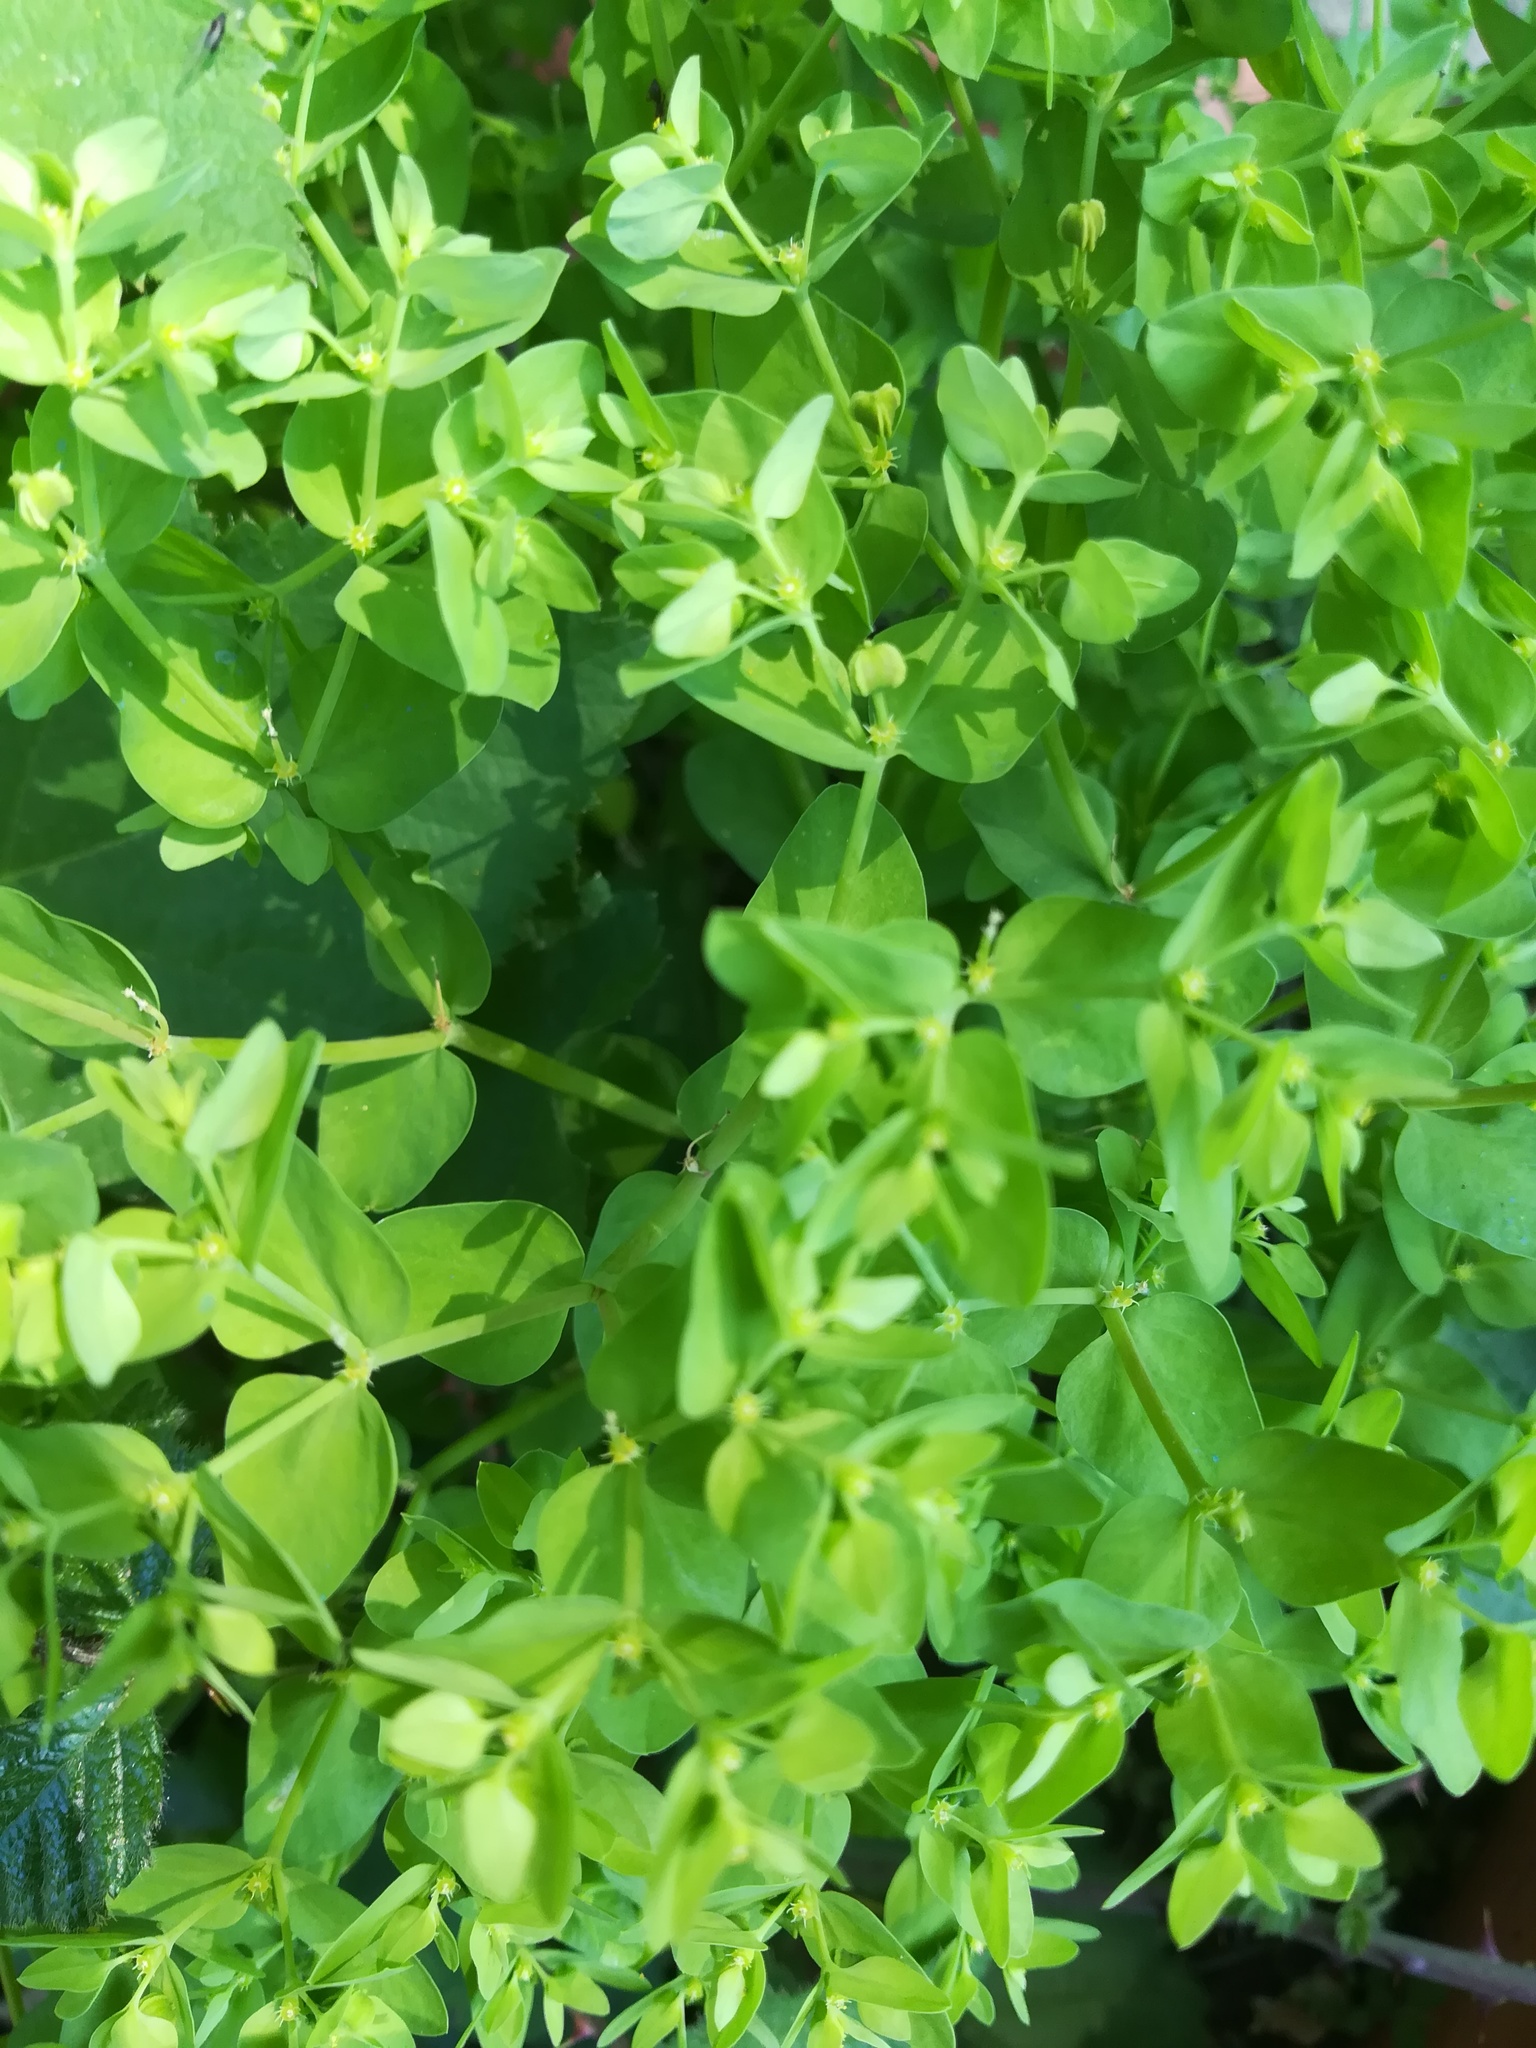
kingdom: Plantae
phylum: Tracheophyta
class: Magnoliopsida
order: Malpighiales
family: Euphorbiaceae
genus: Euphorbia
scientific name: Euphorbia peplus
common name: Petty spurge
